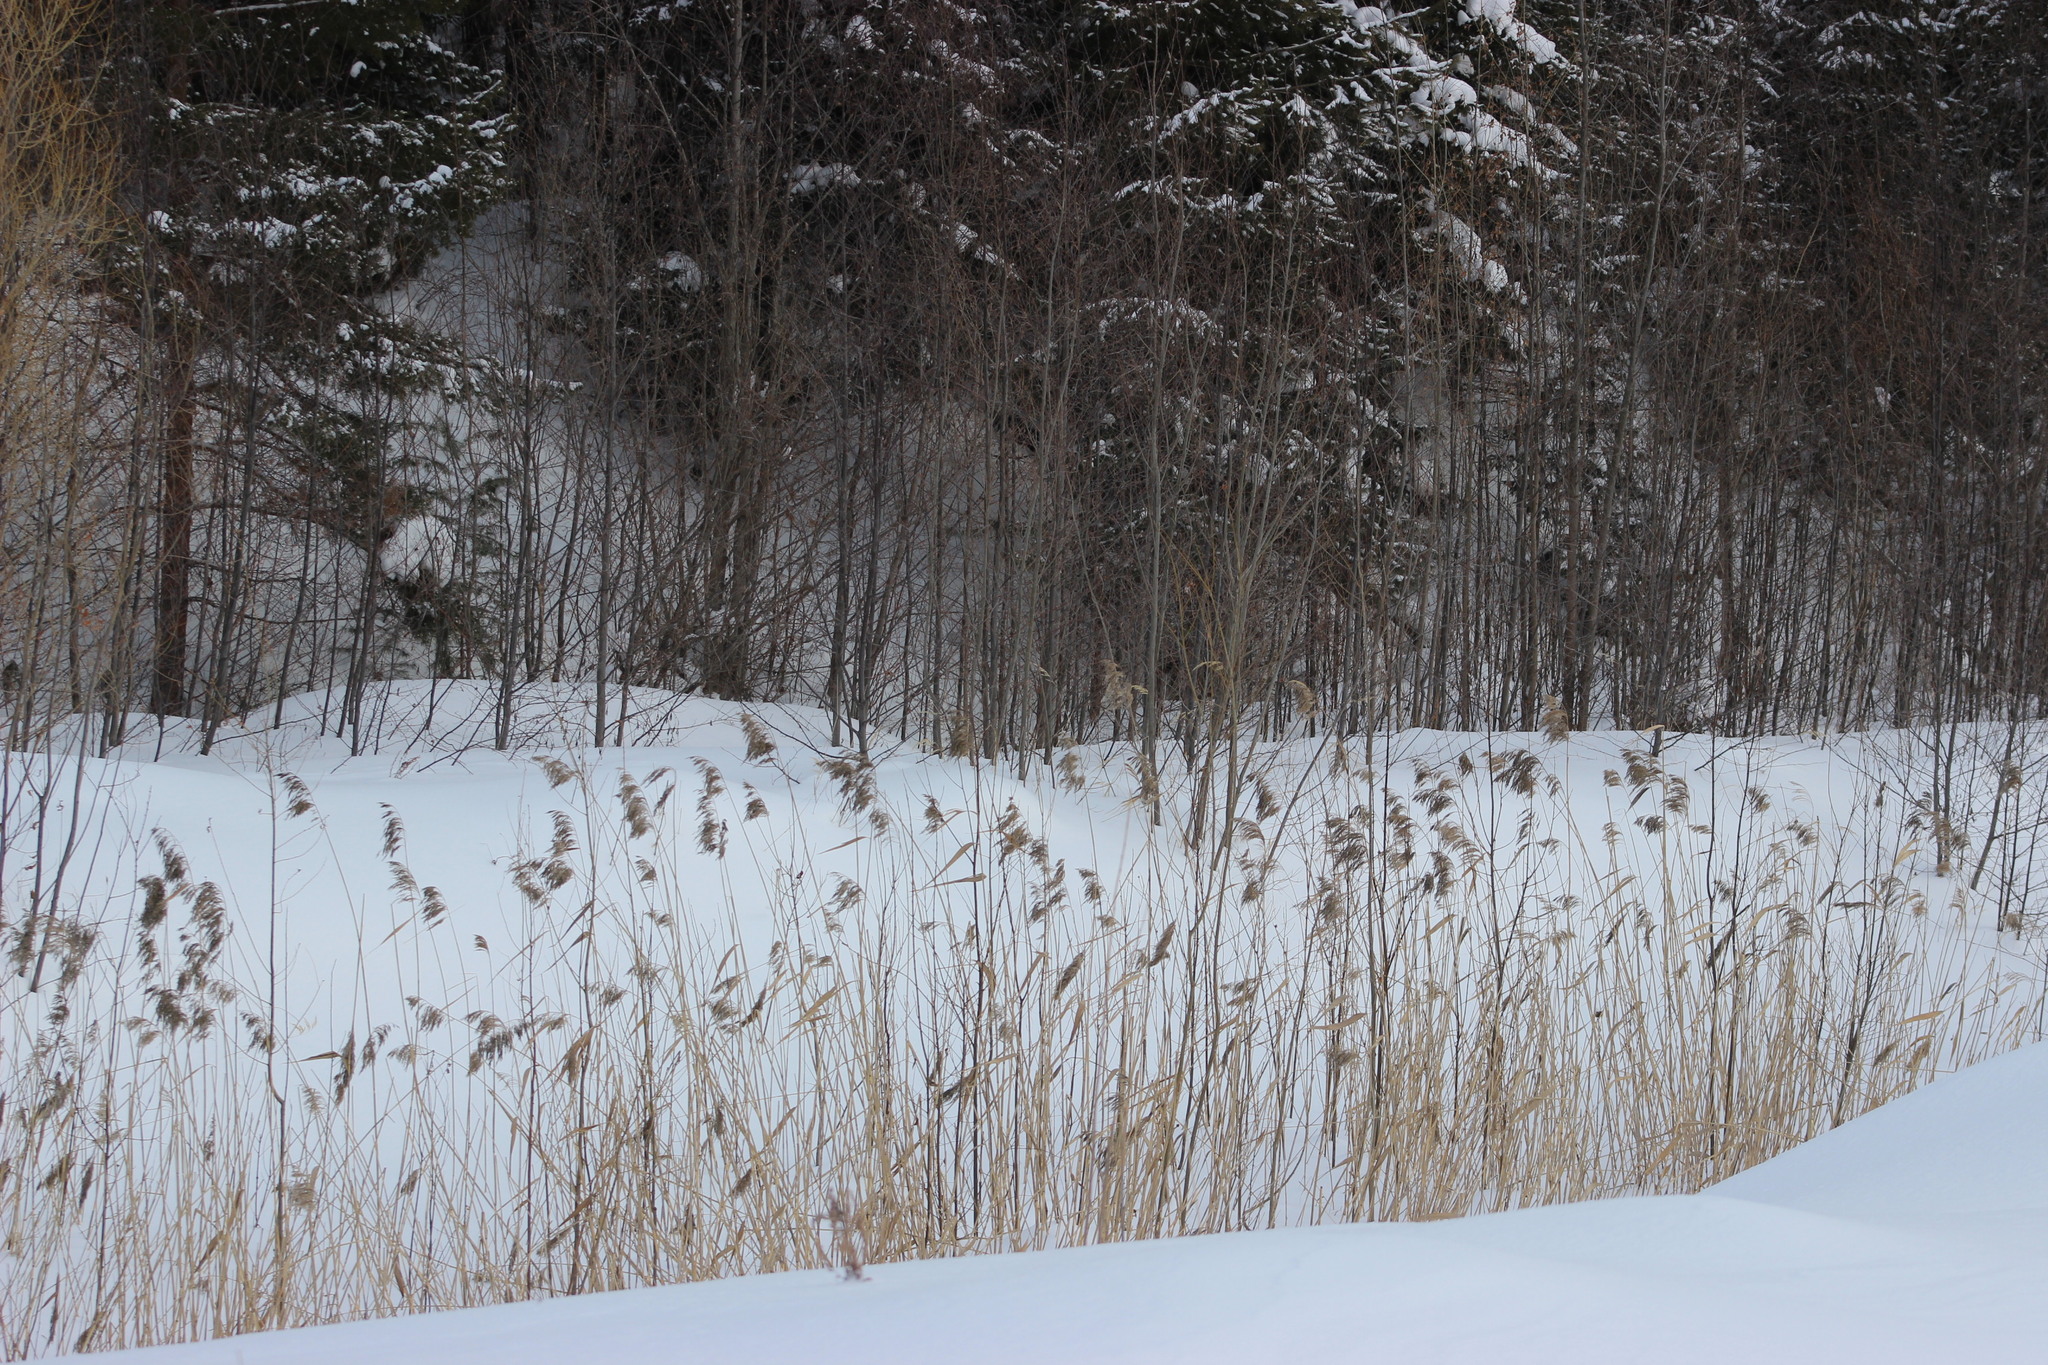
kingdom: Plantae
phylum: Tracheophyta
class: Liliopsida
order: Poales
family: Poaceae
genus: Phragmites
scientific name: Phragmites australis
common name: Common reed
